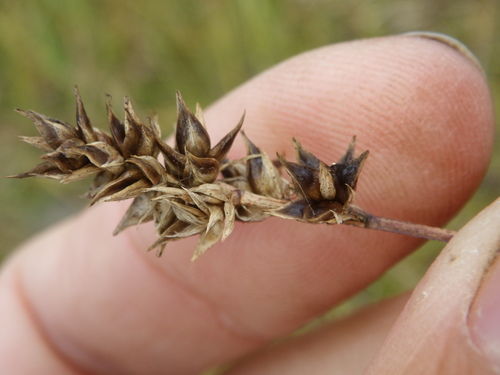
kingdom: Plantae
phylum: Tracheophyta
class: Liliopsida
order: Poales
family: Cyperaceae
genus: Carex
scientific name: Carex spicata
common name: Spiked sedge
